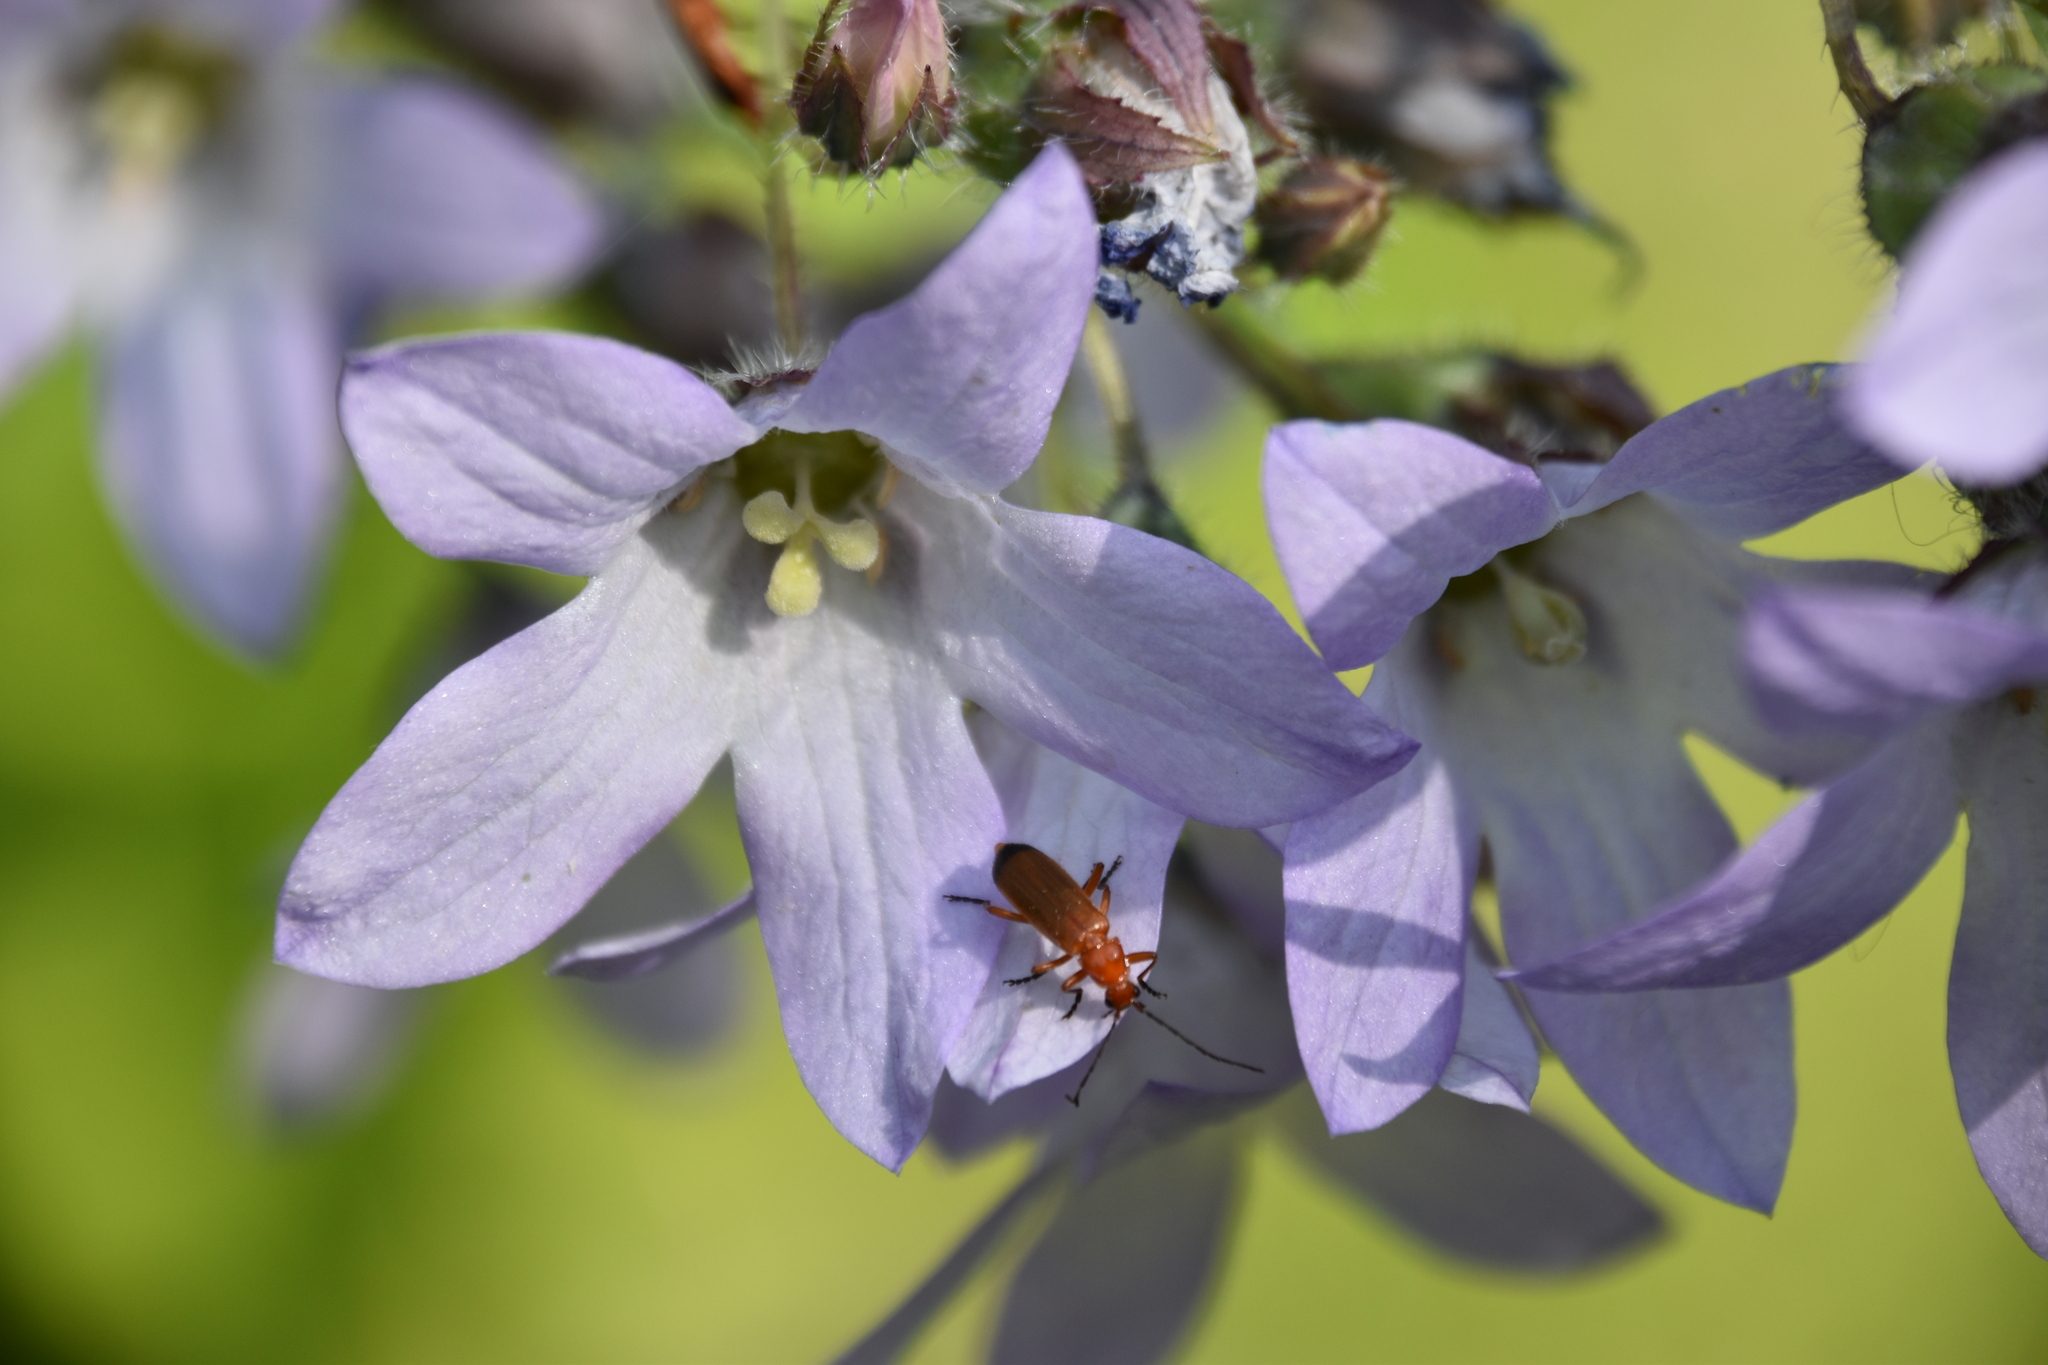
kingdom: Animalia
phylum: Arthropoda
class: Insecta
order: Coleoptera
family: Cantharidae
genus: Rhagonycha
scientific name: Rhagonycha fulva
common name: Common red soldier beetle
